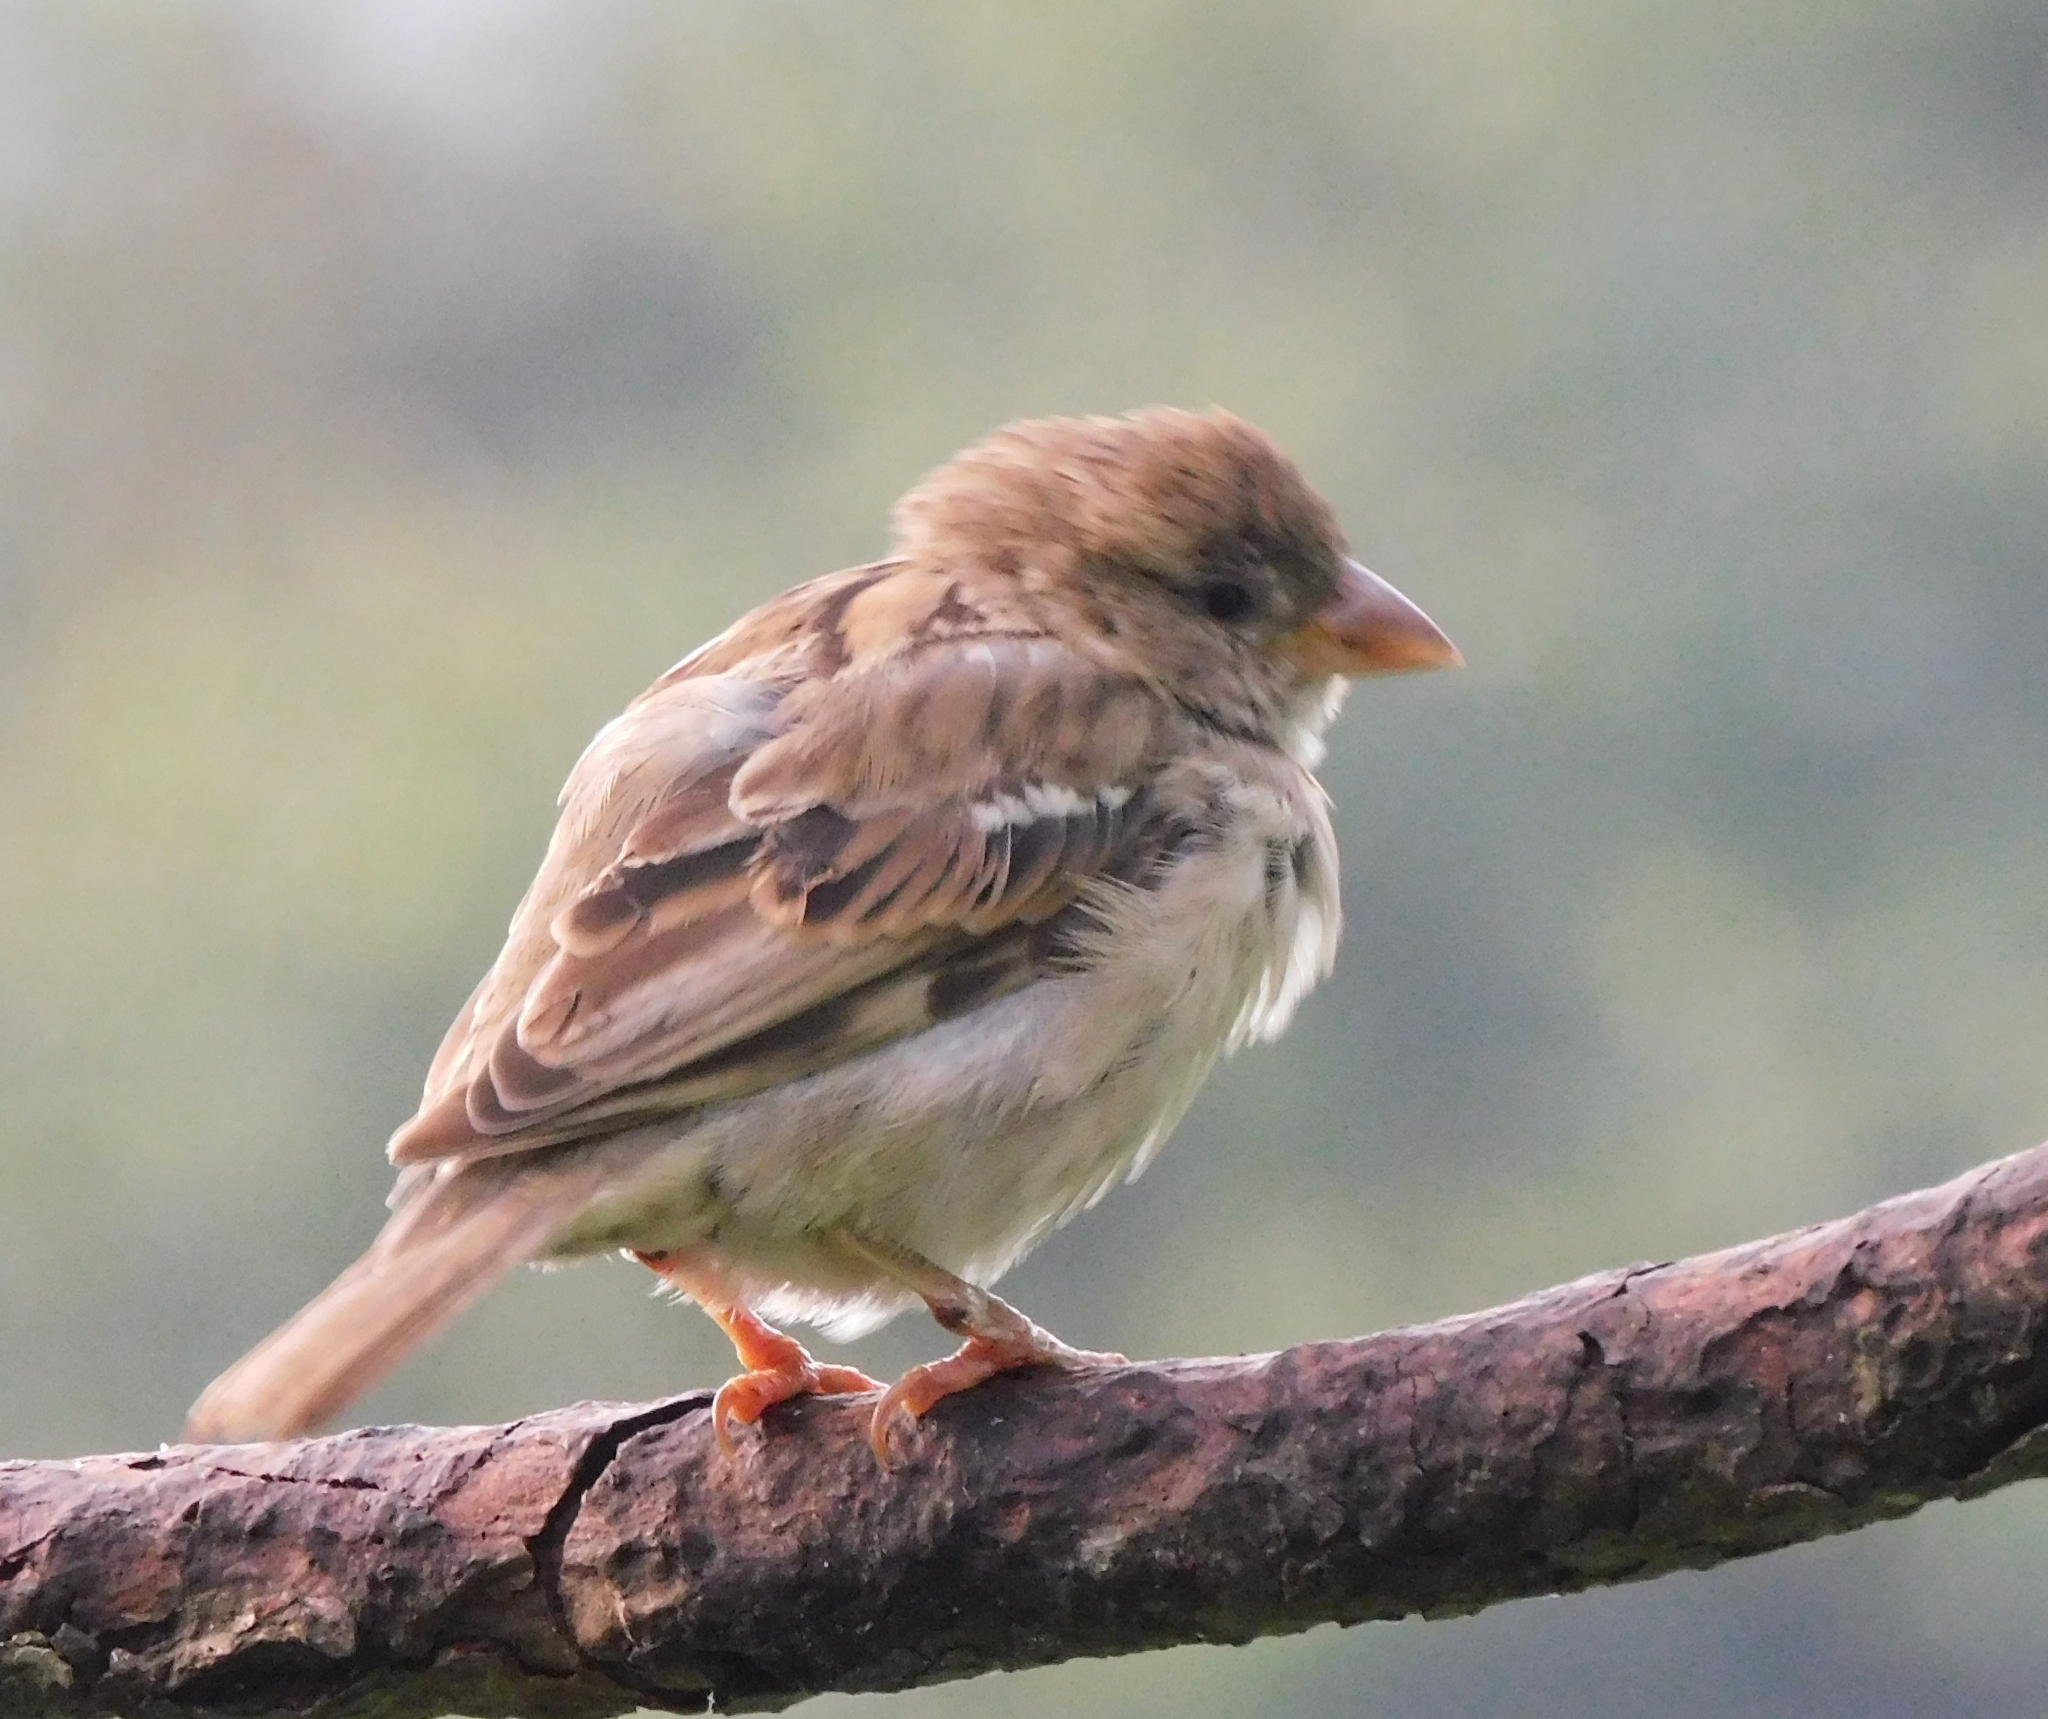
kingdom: Animalia
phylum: Chordata
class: Aves
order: Passeriformes
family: Passeridae
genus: Passer
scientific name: Passer cinnamomeus
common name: Russet sparrow
